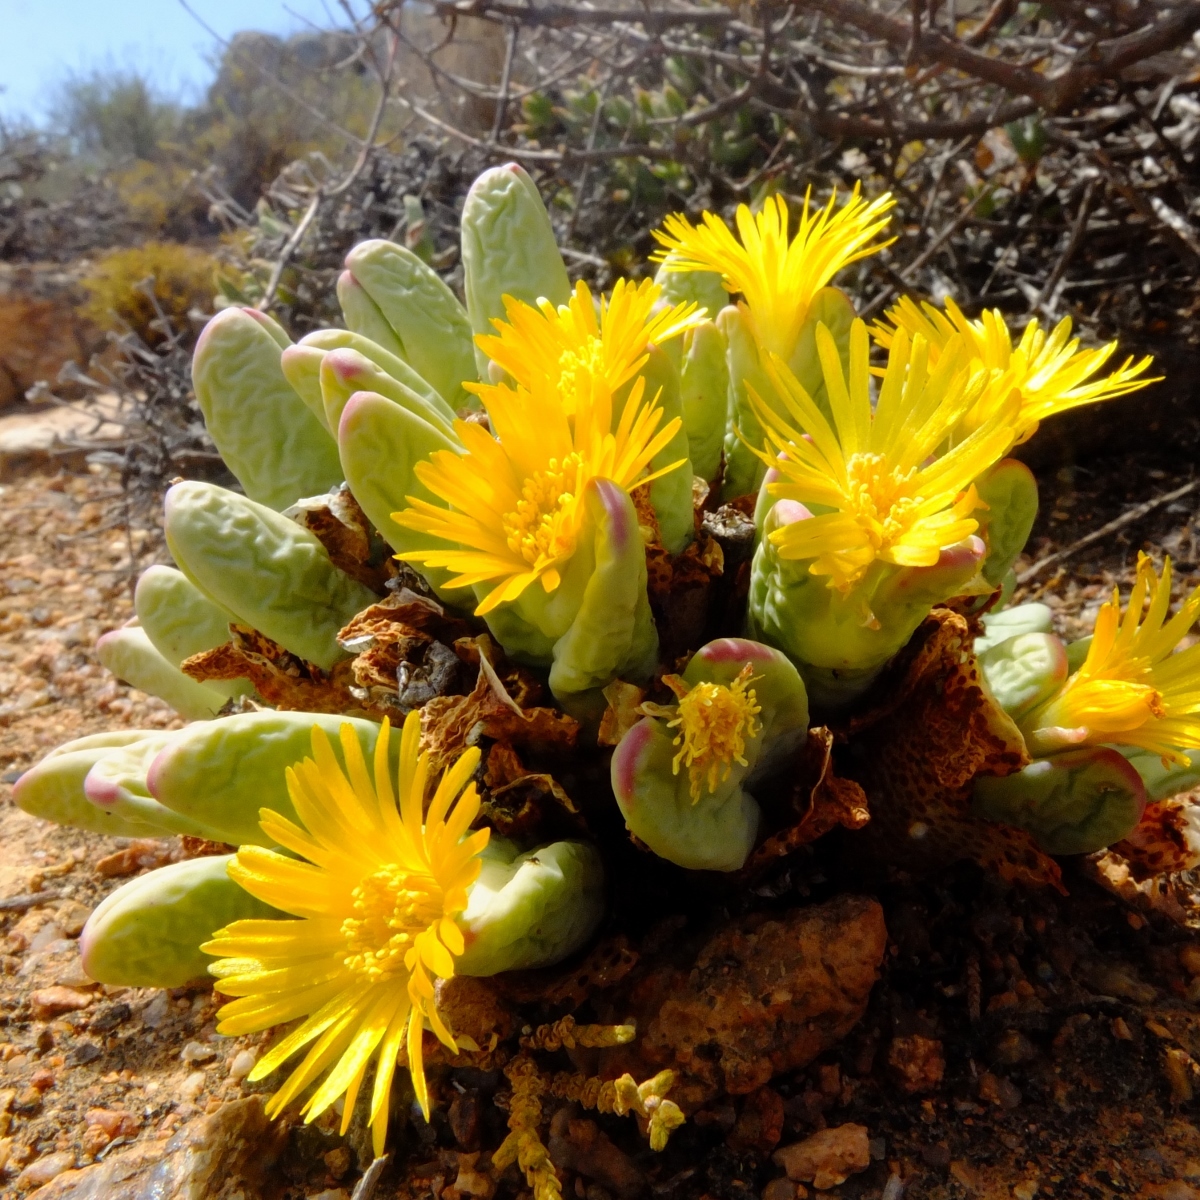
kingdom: Plantae
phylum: Tracheophyta
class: Magnoliopsida
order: Caryophyllales
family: Aizoaceae
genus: Conophytum
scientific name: Conophytum bilobum
